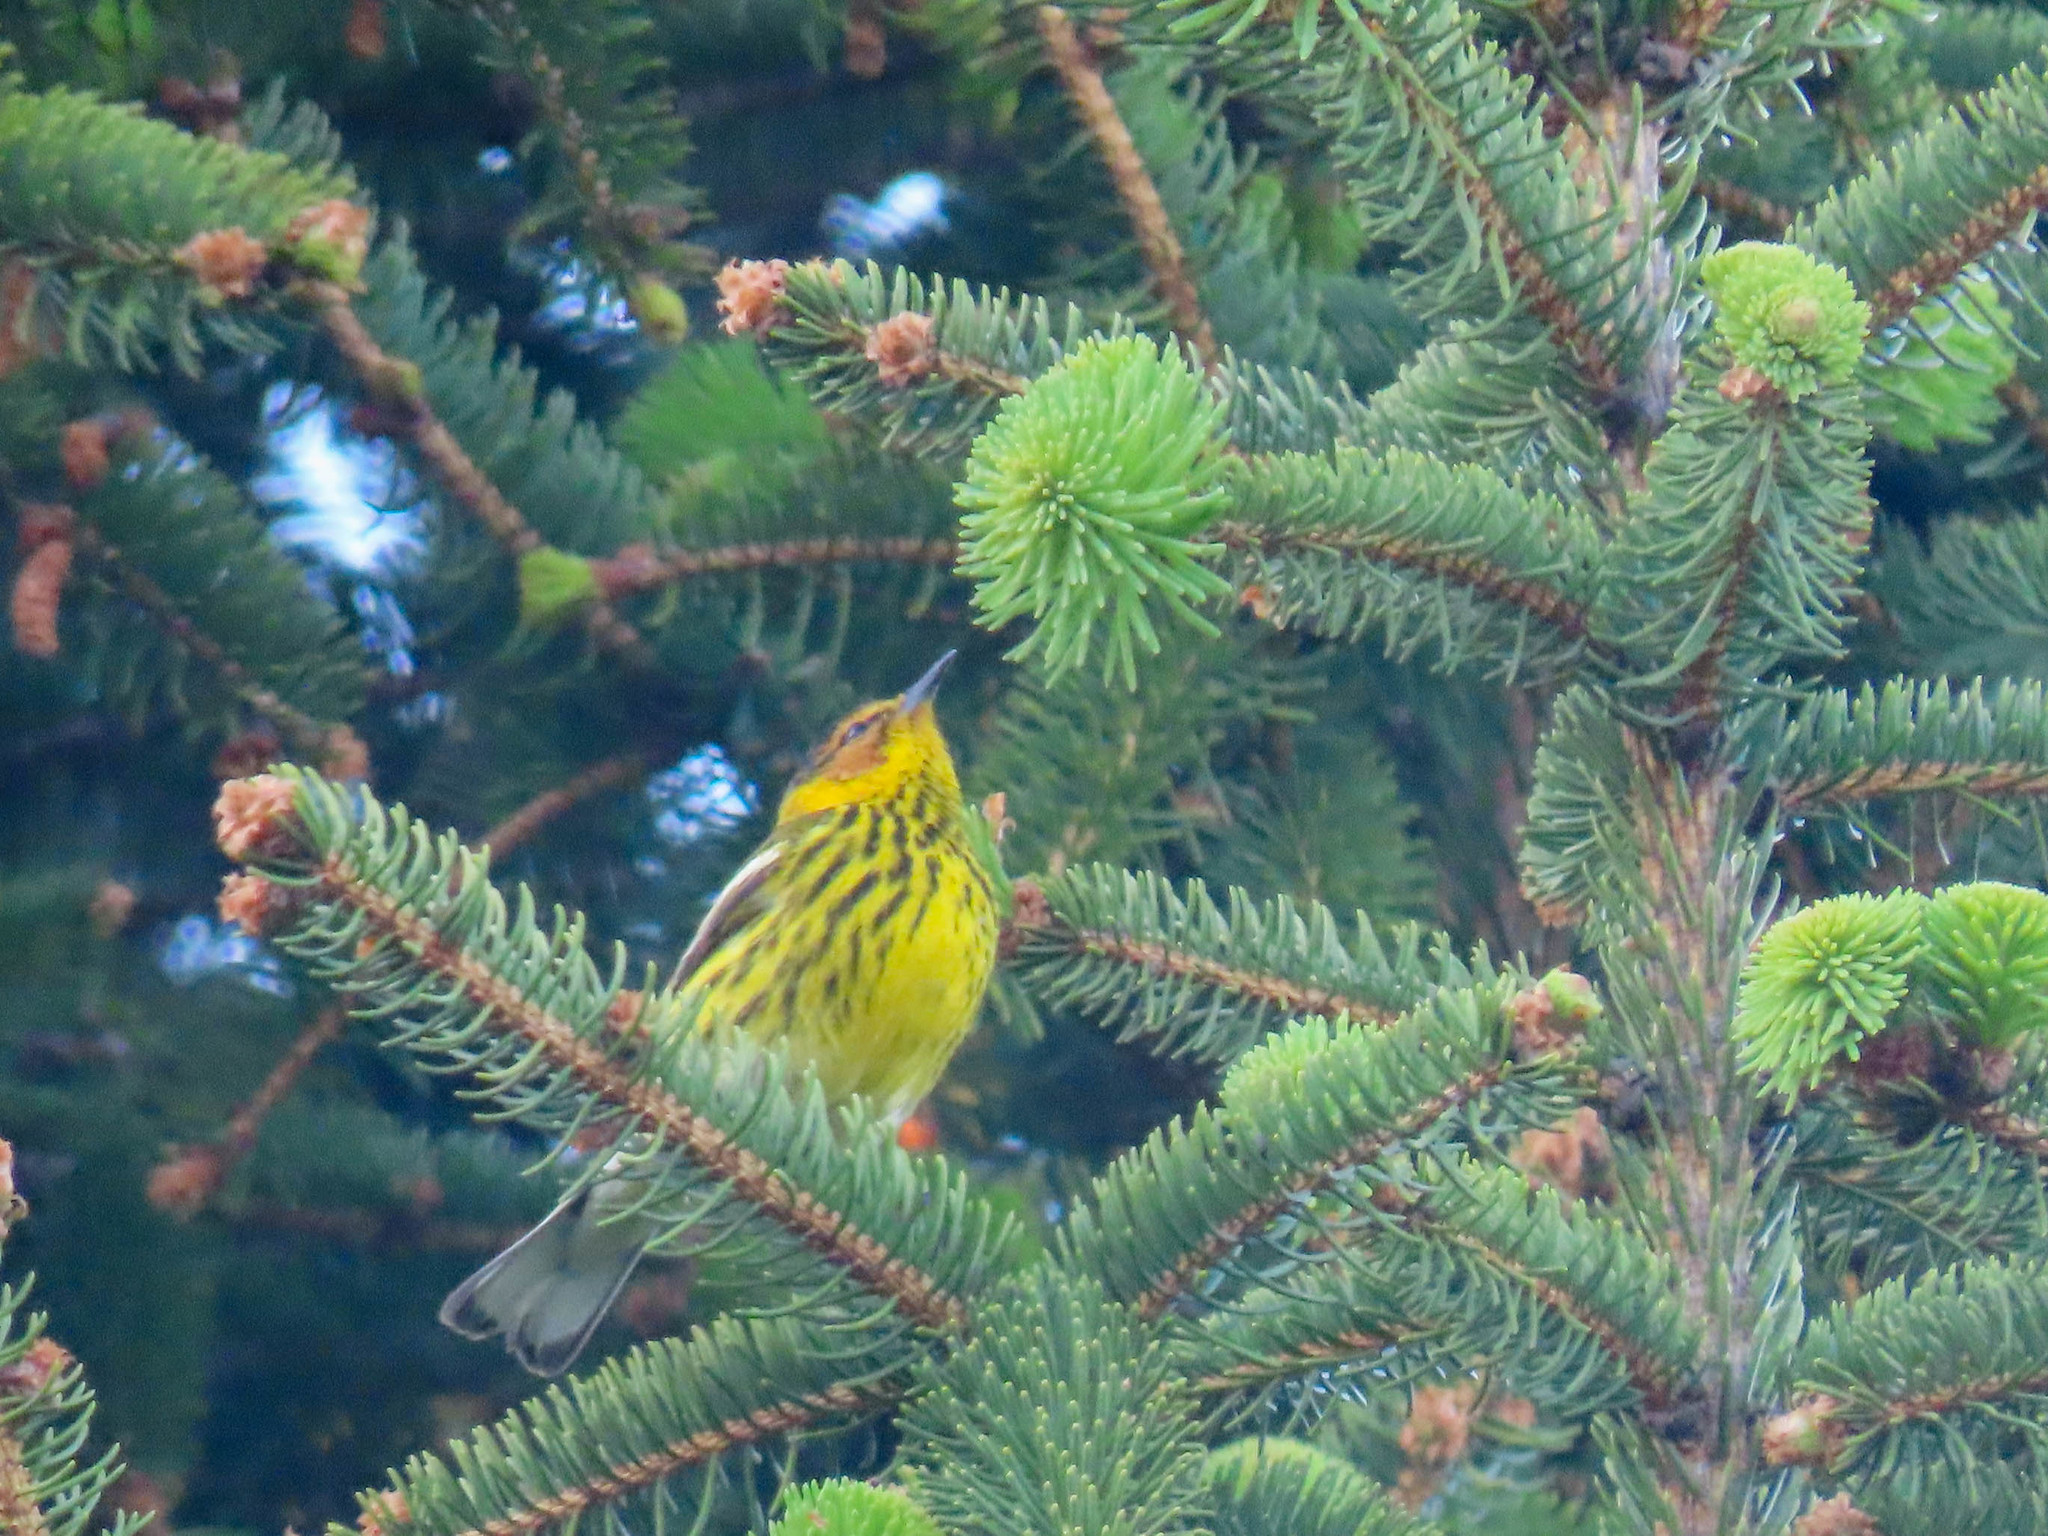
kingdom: Animalia
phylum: Chordata
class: Aves
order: Passeriformes
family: Parulidae
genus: Setophaga
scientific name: Setophaga tigrina
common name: Cape may warbler
